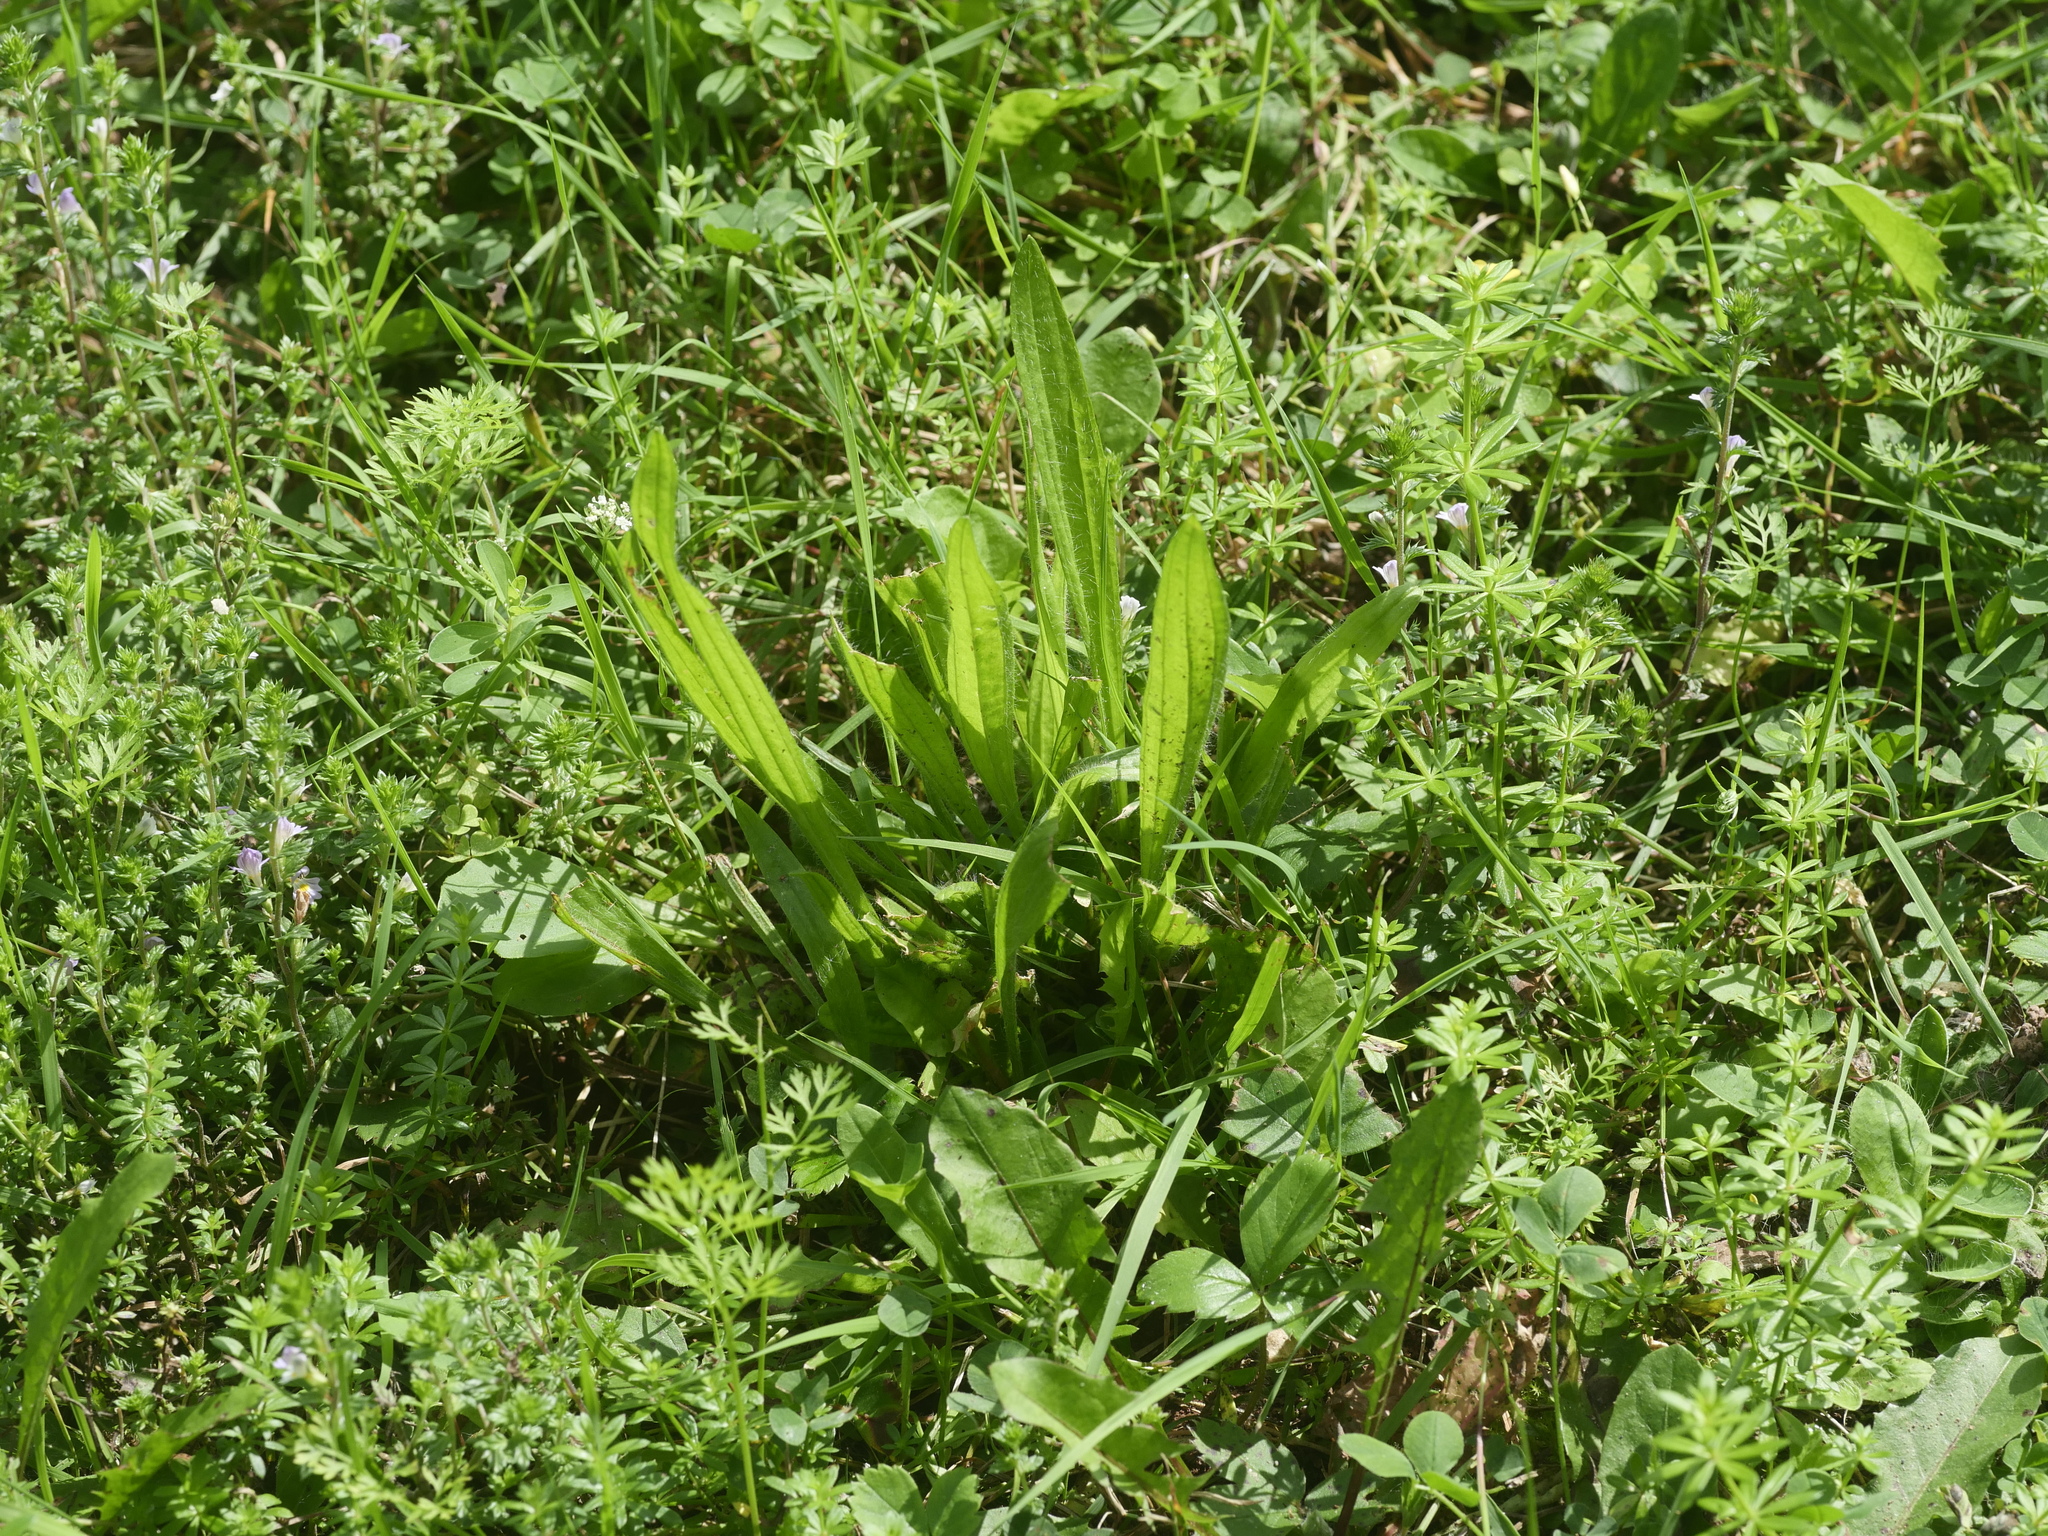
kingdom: Plantae
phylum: Tracheophyta
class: Magnoliopsida
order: Lamiales
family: Plantaginaceae
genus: Plantago
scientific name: Plantago lanceolata
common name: Ribwort plantain
